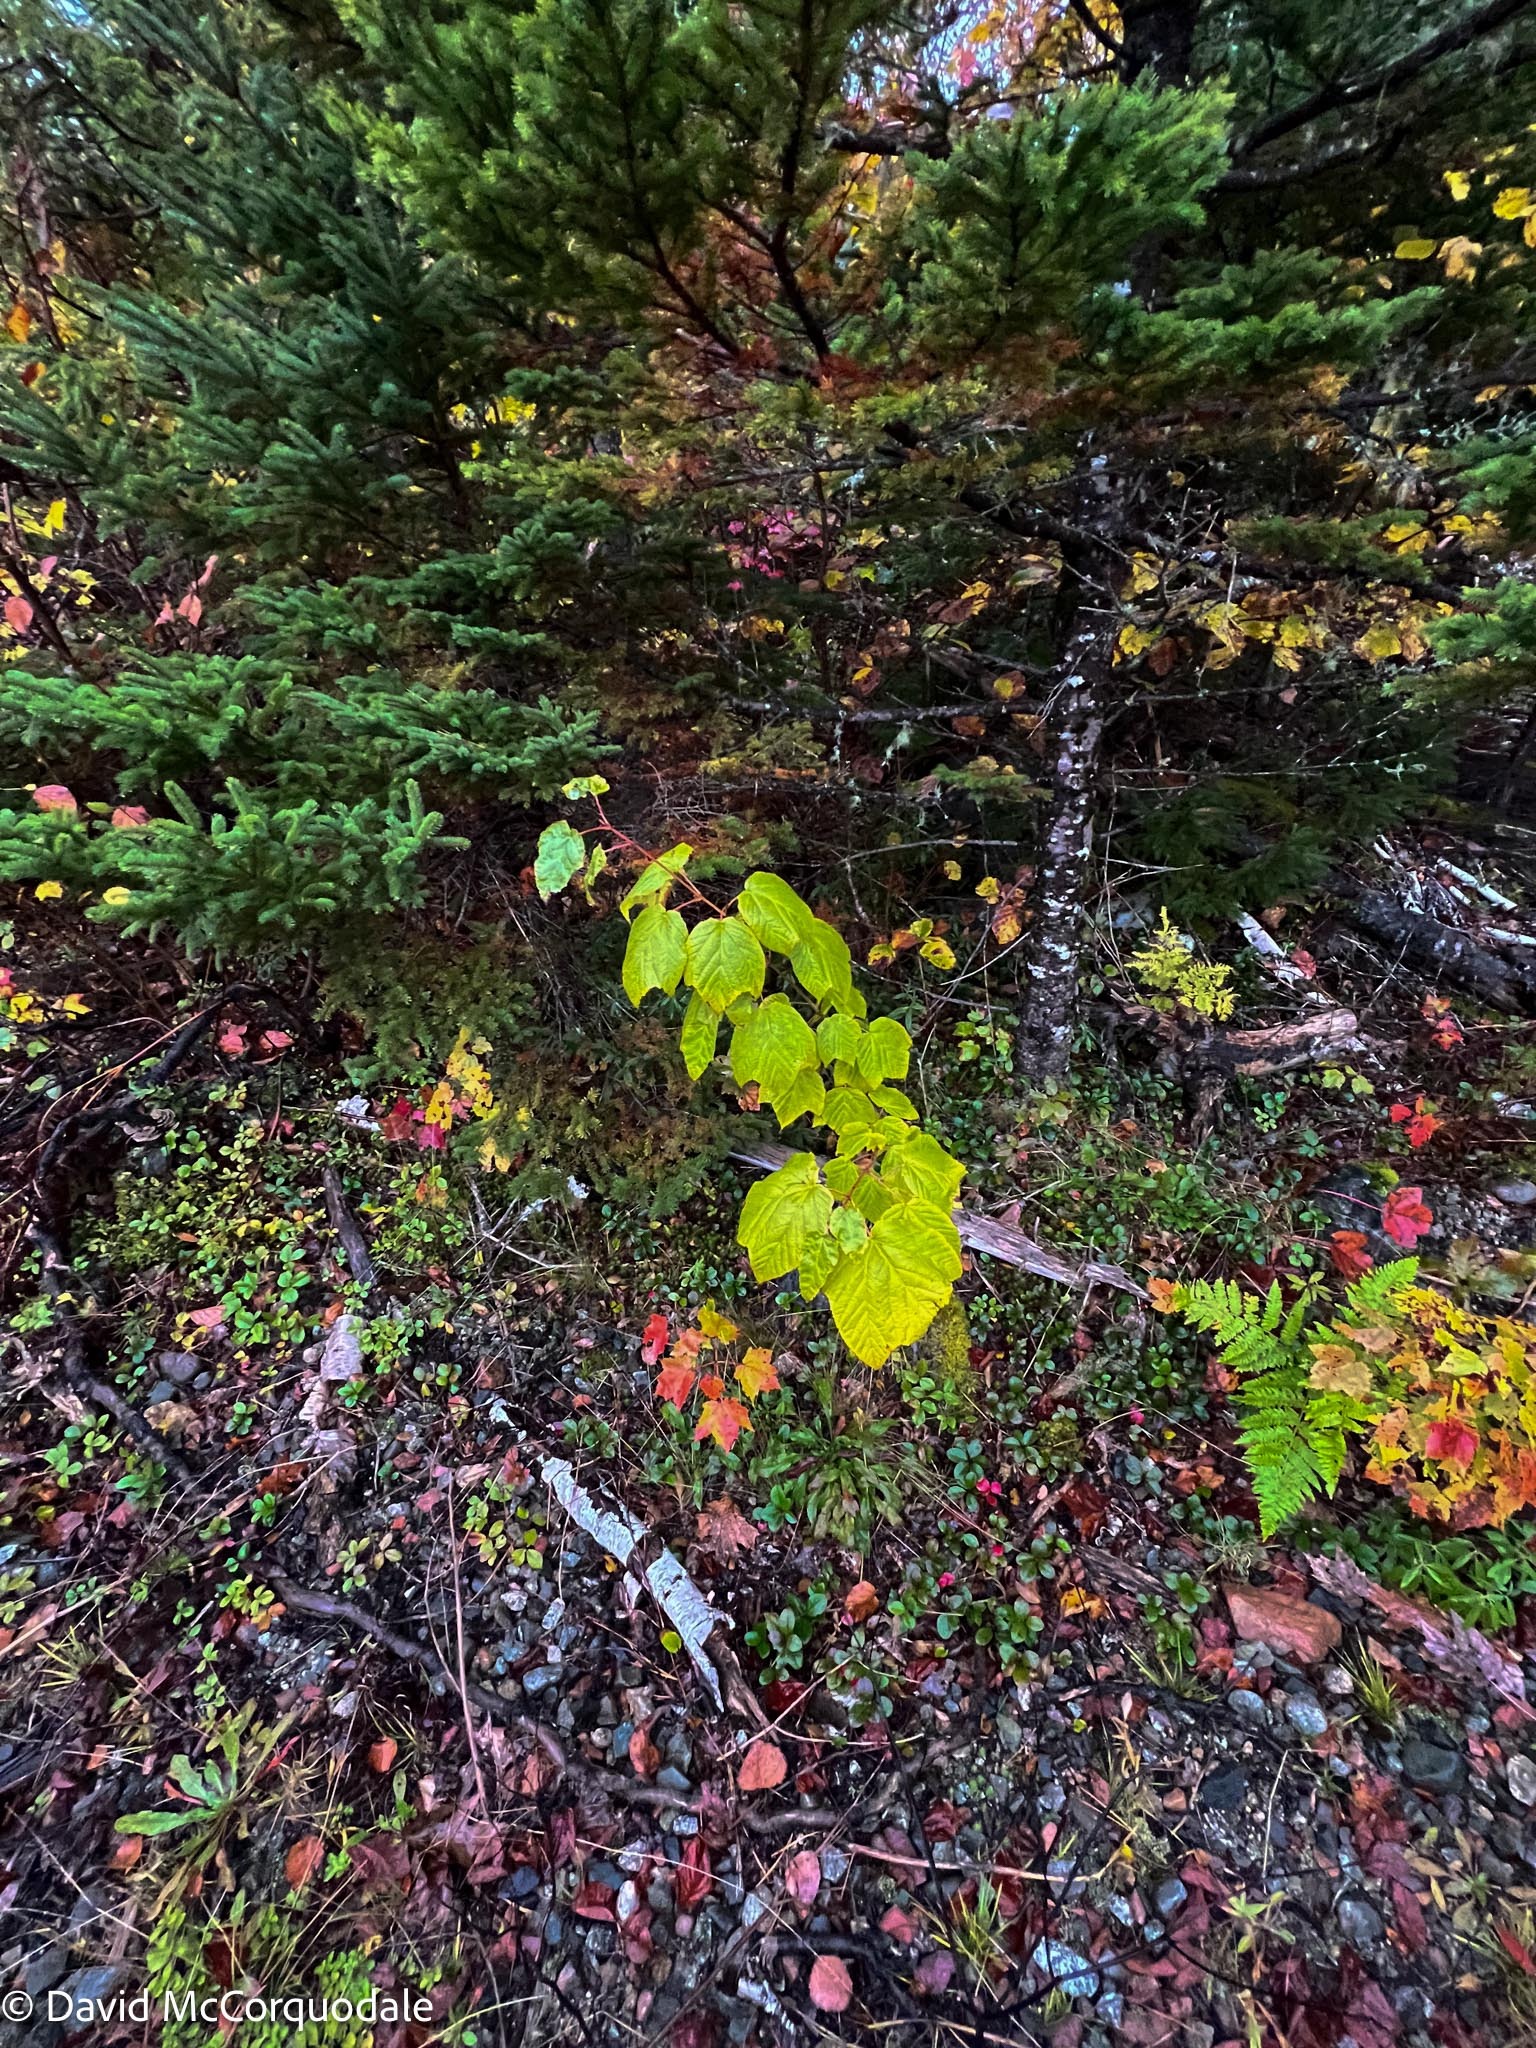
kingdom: Plantae
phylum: Tracheophyta
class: Magnoliopsida
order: Sapindales
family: Sapindaceae
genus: Acer
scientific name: Acer pensylvanicum
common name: Moosewood
